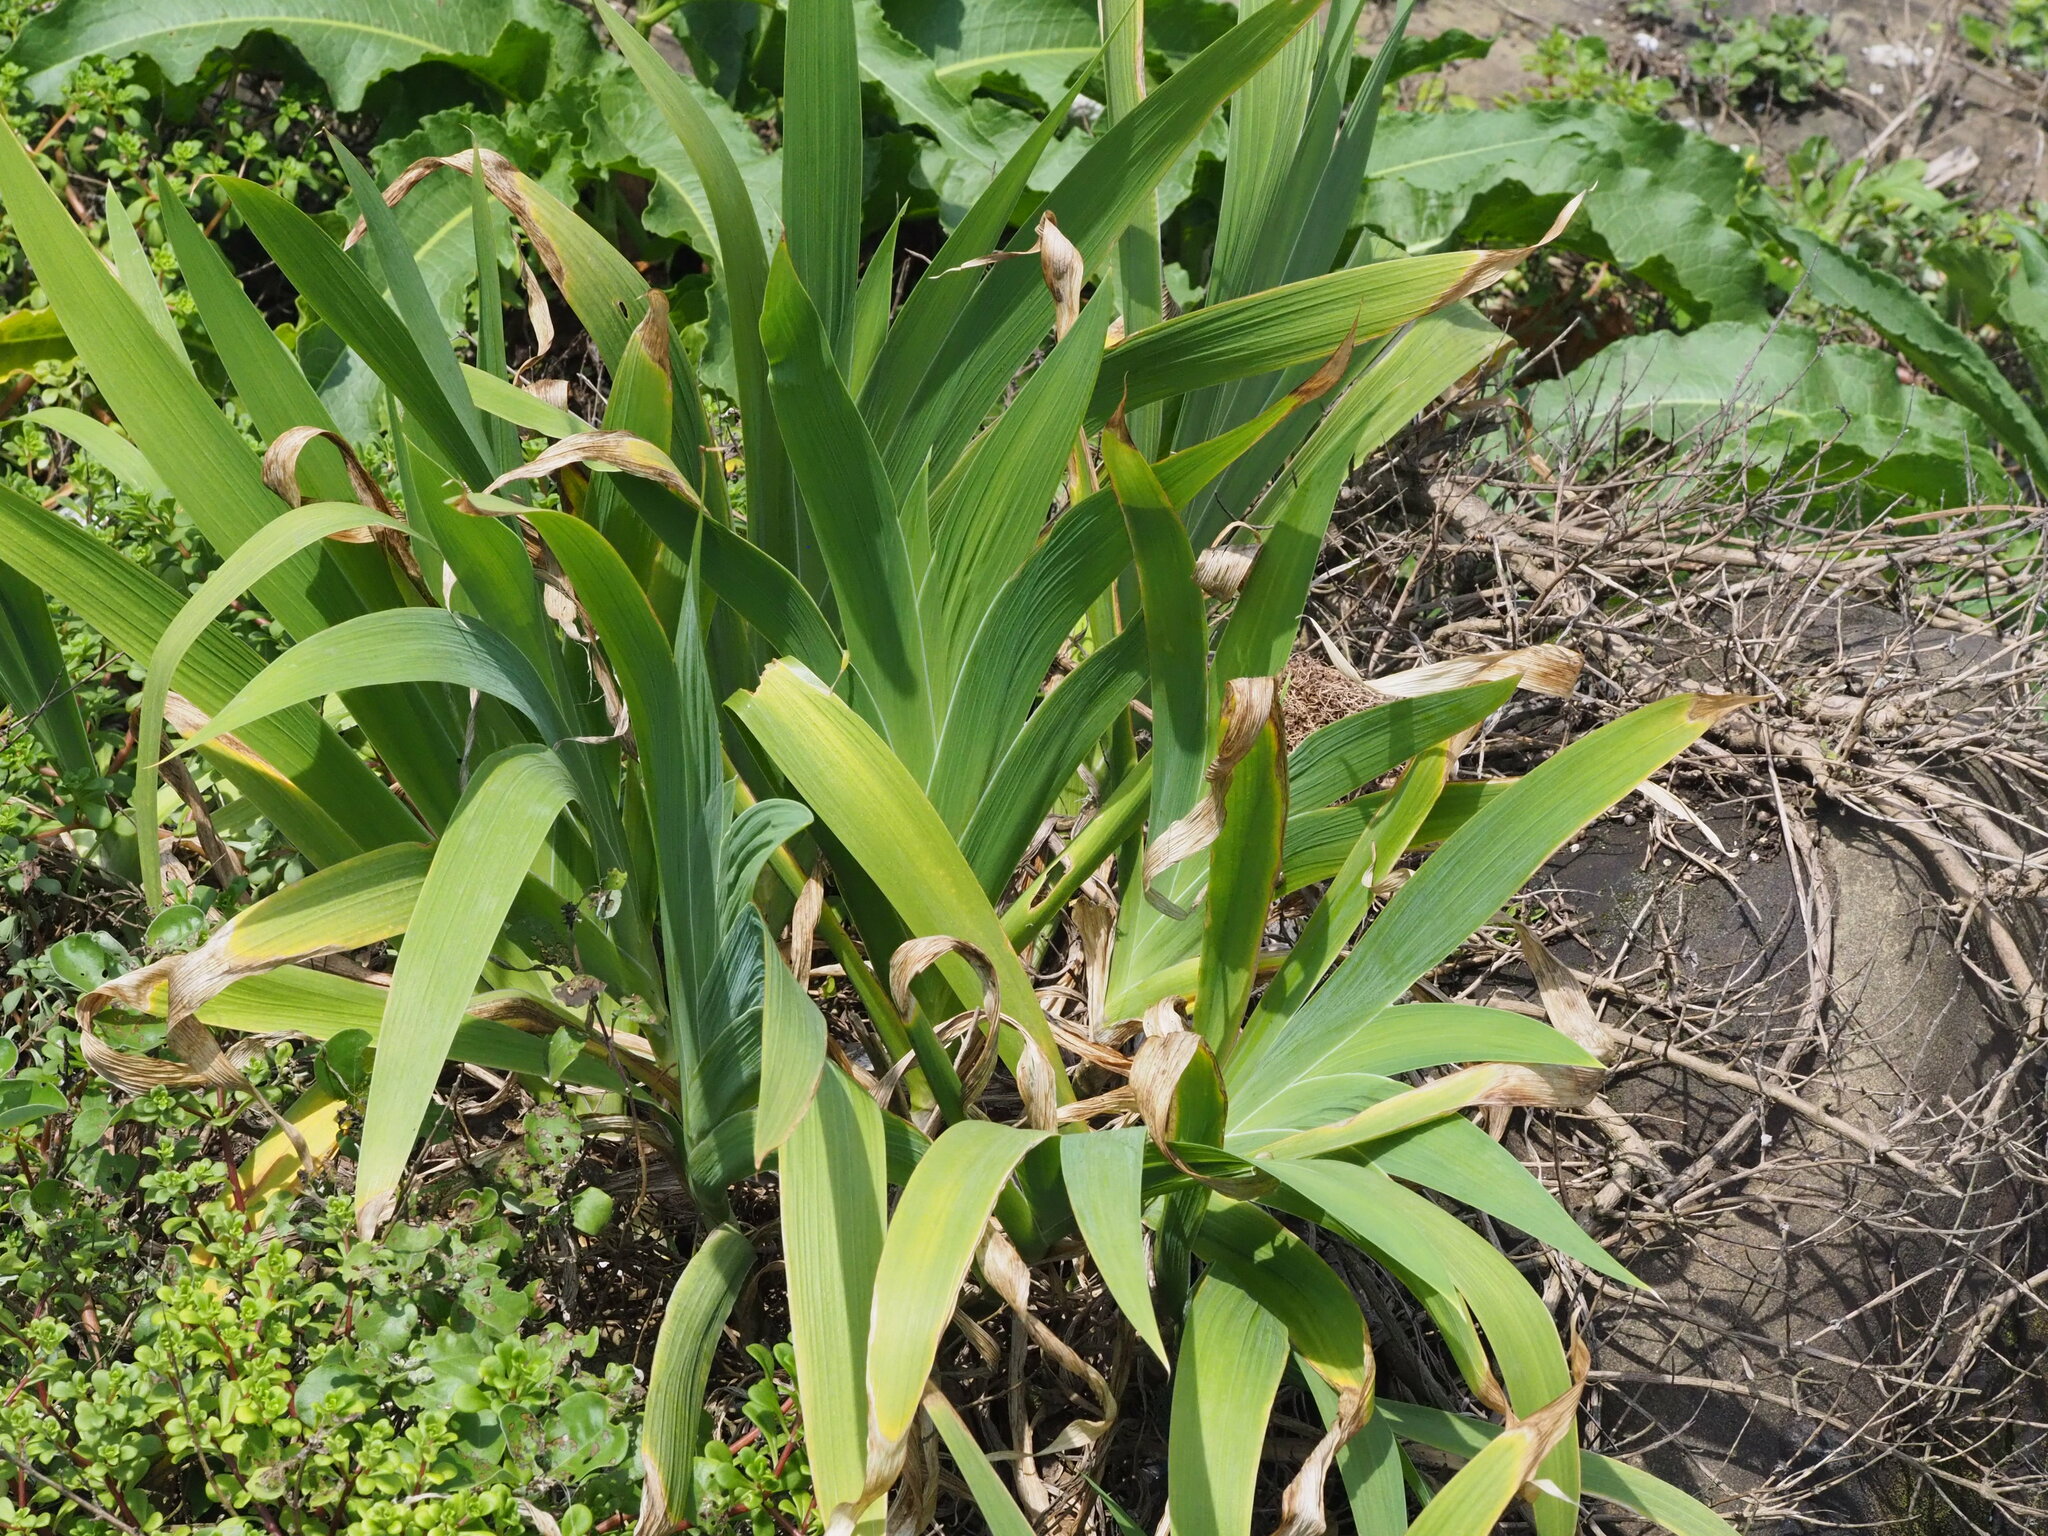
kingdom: Plantae
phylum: Tracheophyta
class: Liliopsida
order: Asparagales
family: Iridaceae
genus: Iris
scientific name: Iris domestica
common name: Belamcanda
